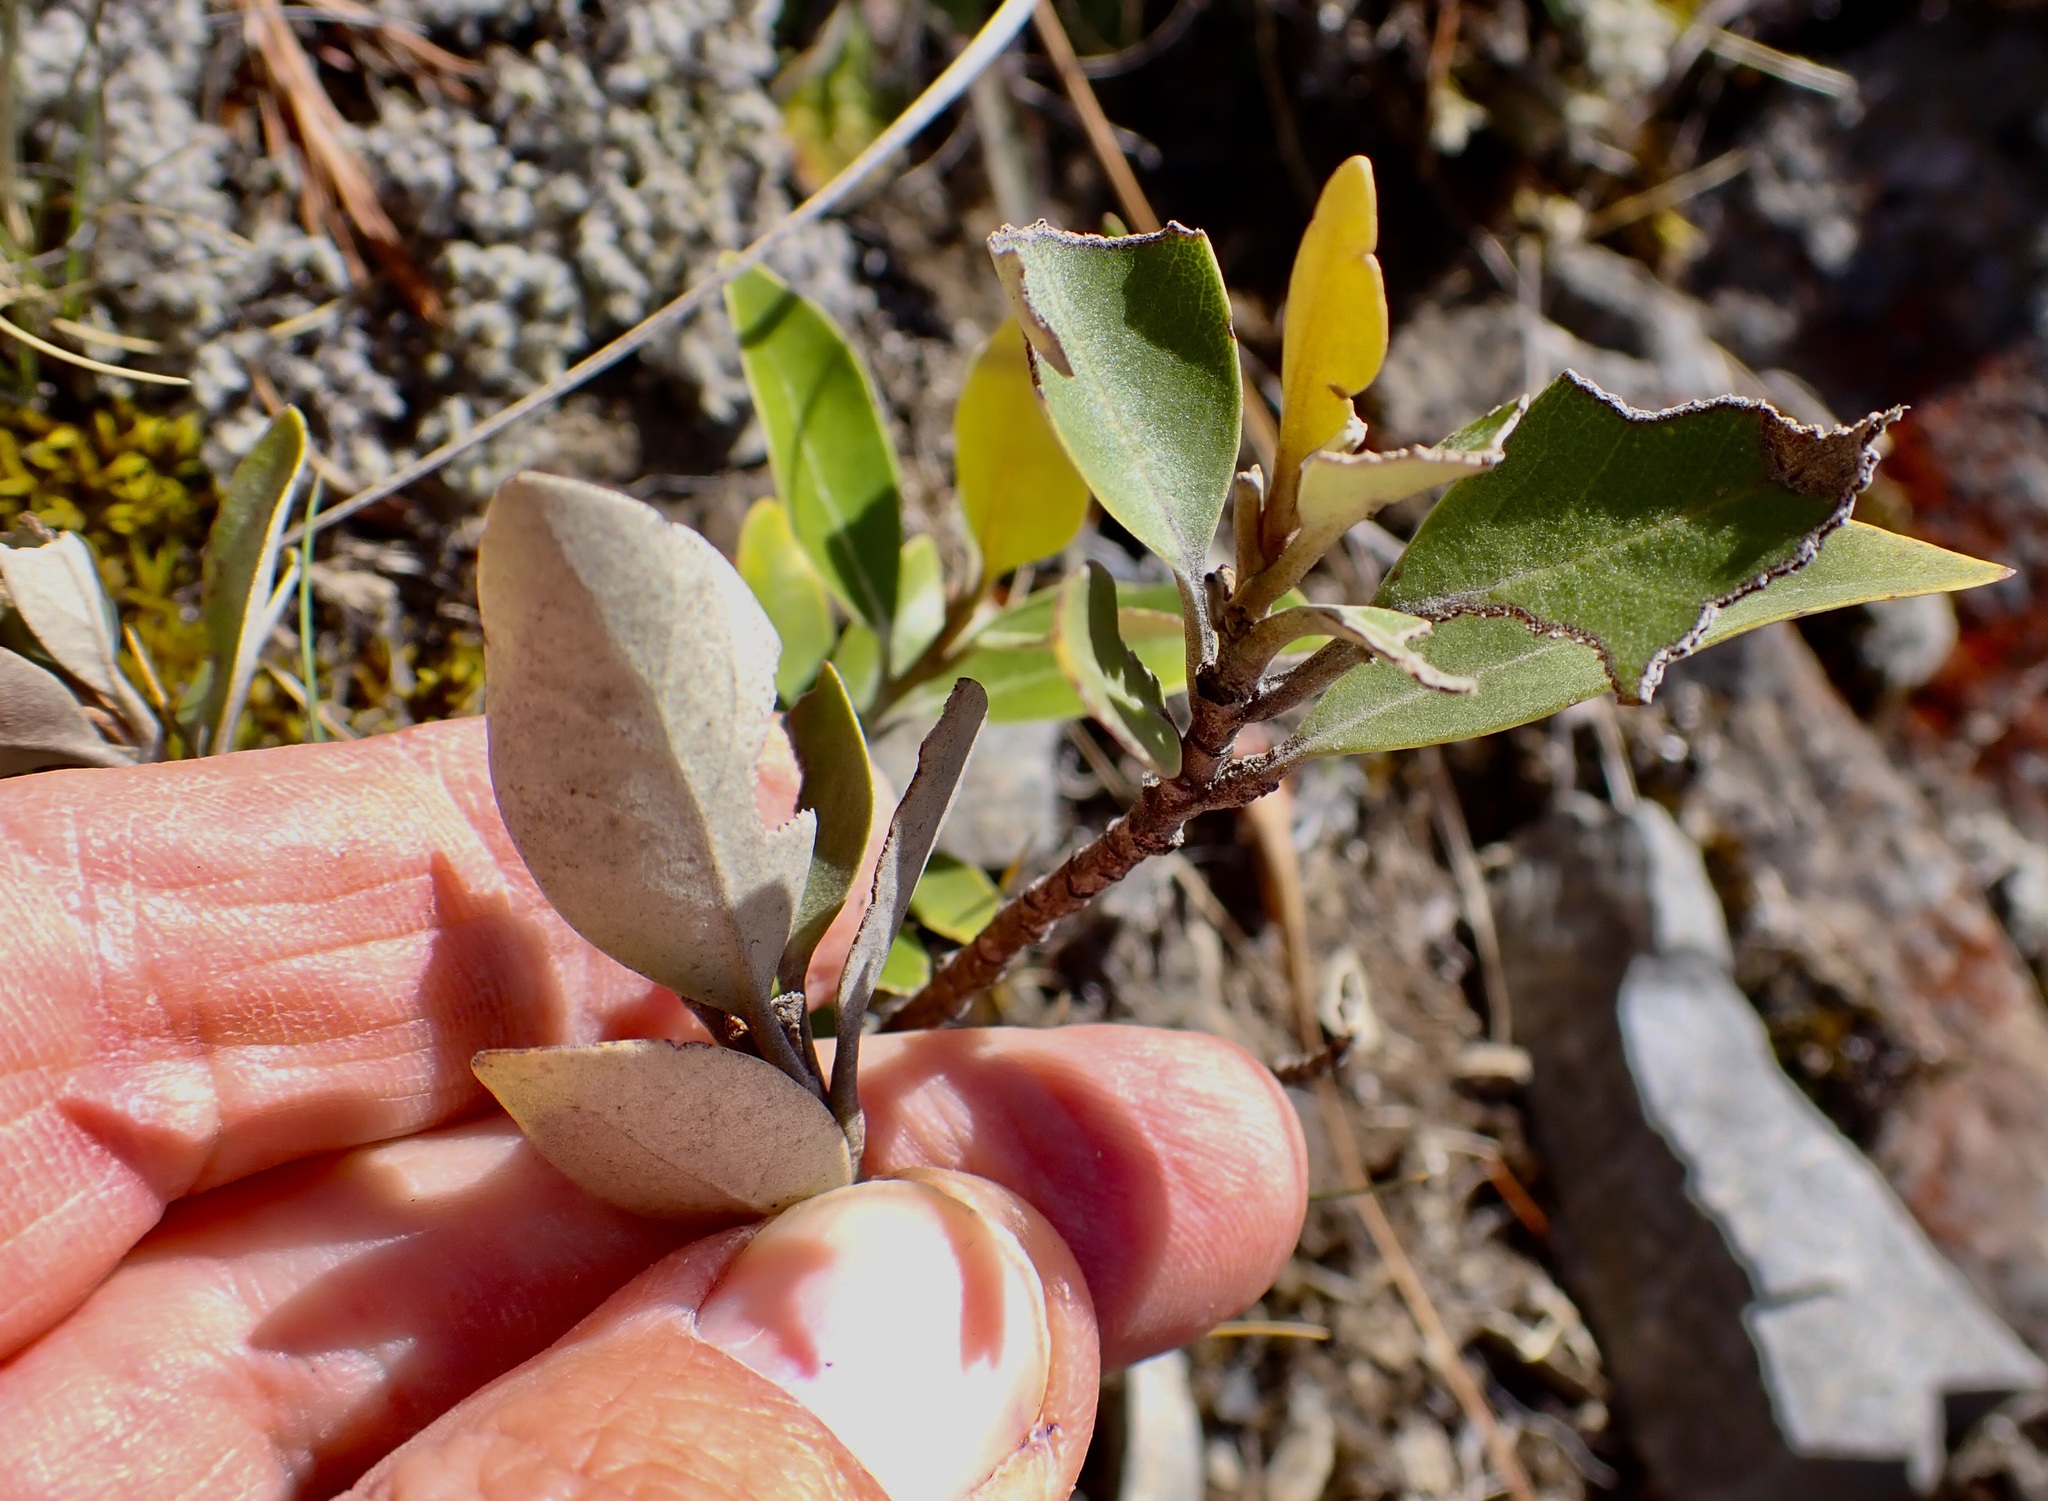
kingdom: Plantae
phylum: Tracheophyta
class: Magnoliopsida
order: Asterales
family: Asteraceae
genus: Olearia
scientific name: Olearia avicenniifolia
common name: Mangrove-leaf daisybush
